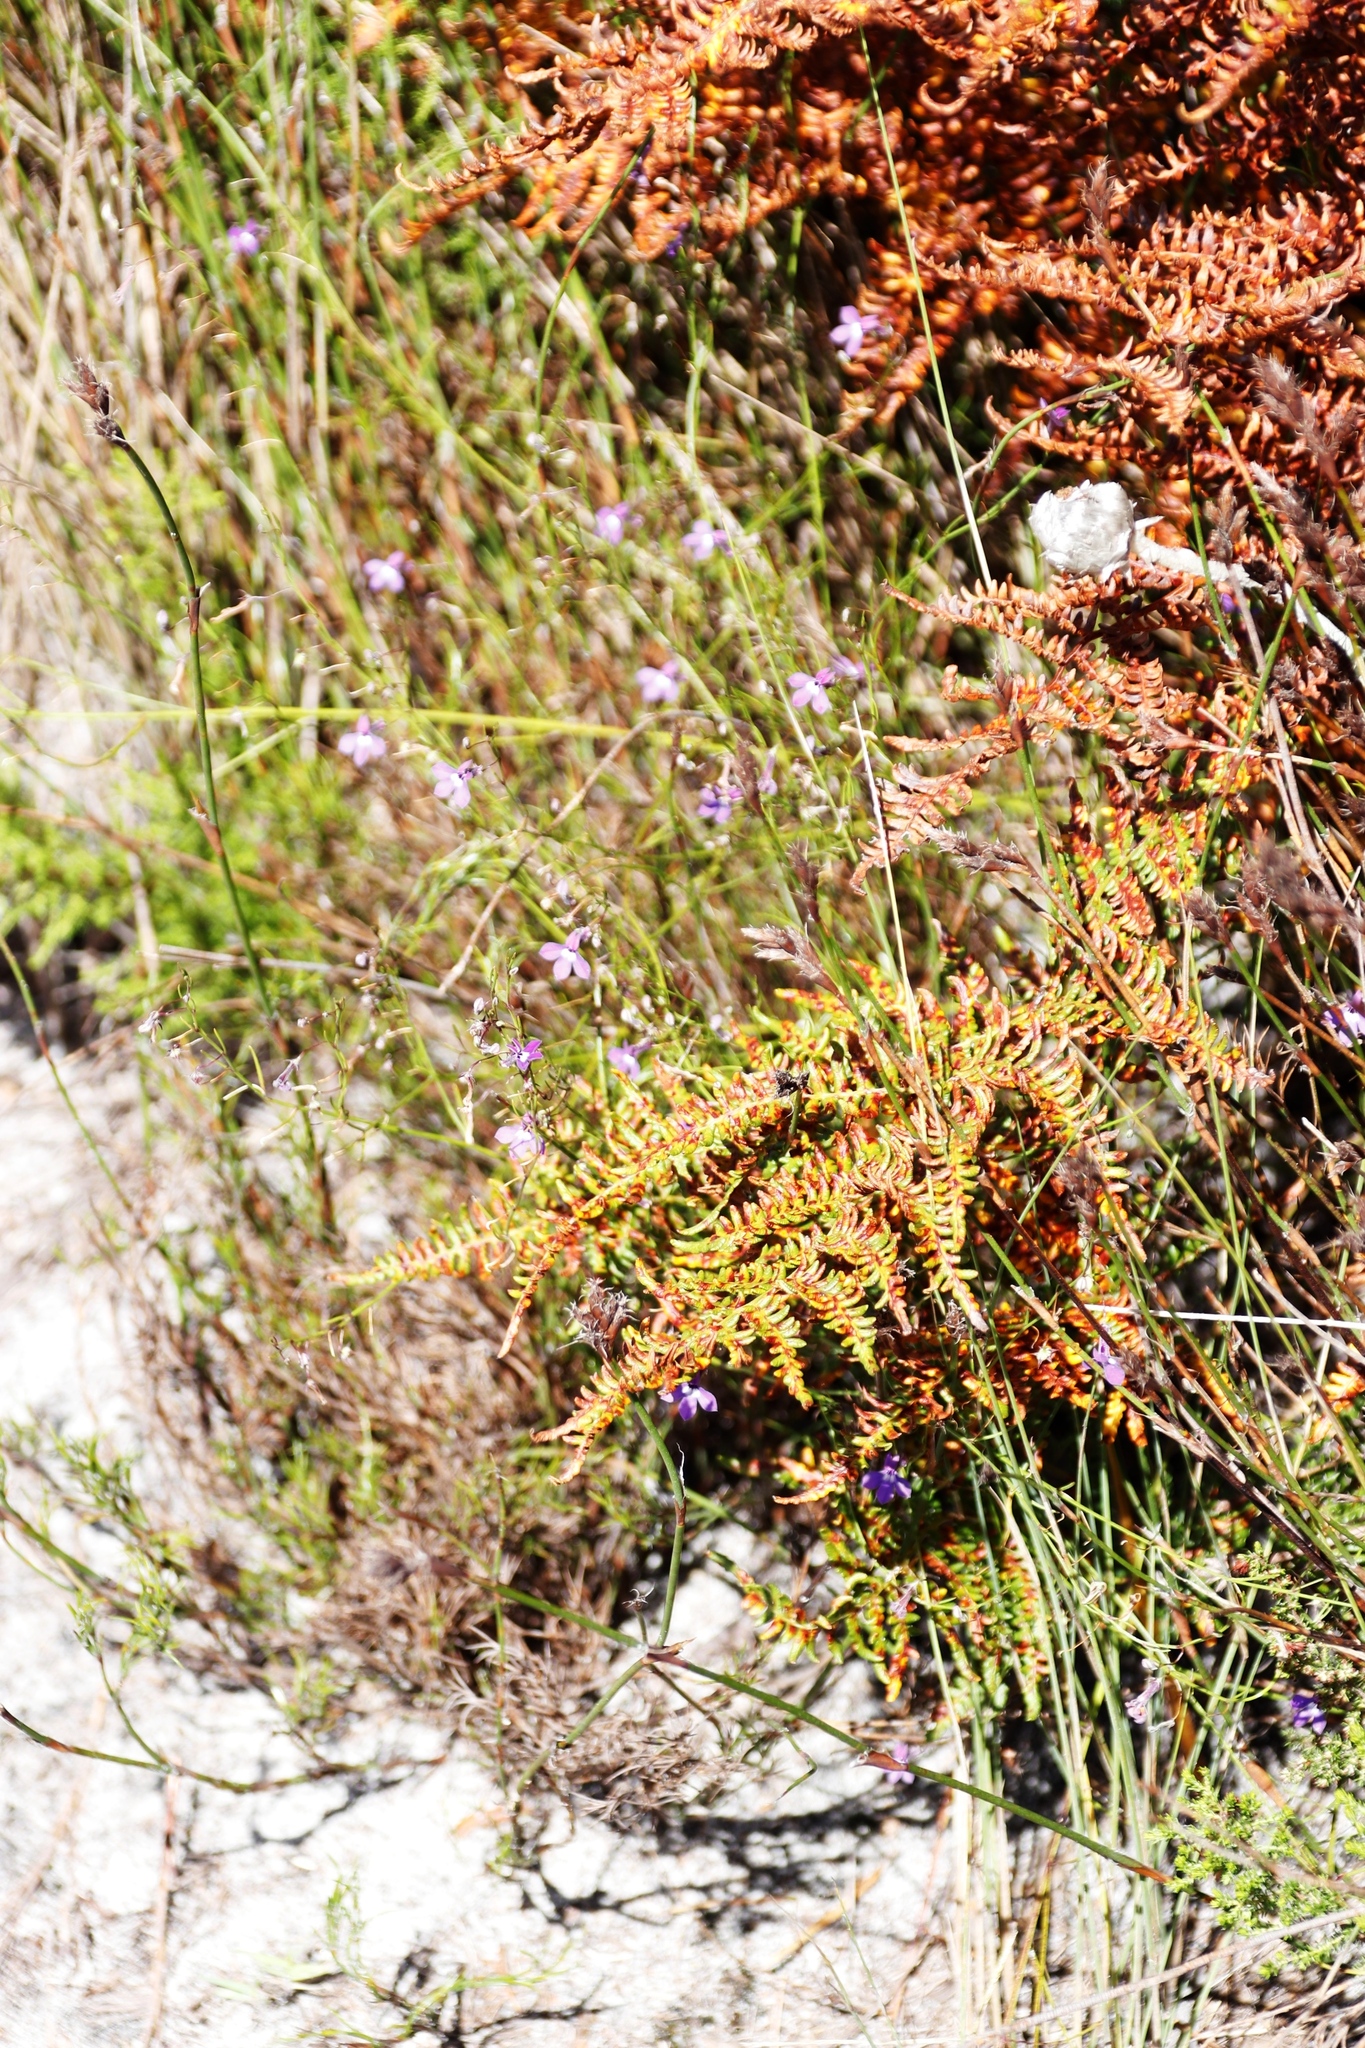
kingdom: Plantae
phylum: Tracheophyta
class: Magnoliopsida
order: Asterales
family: Campanulaceae
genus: Lobelia
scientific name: Lobelia setacea
